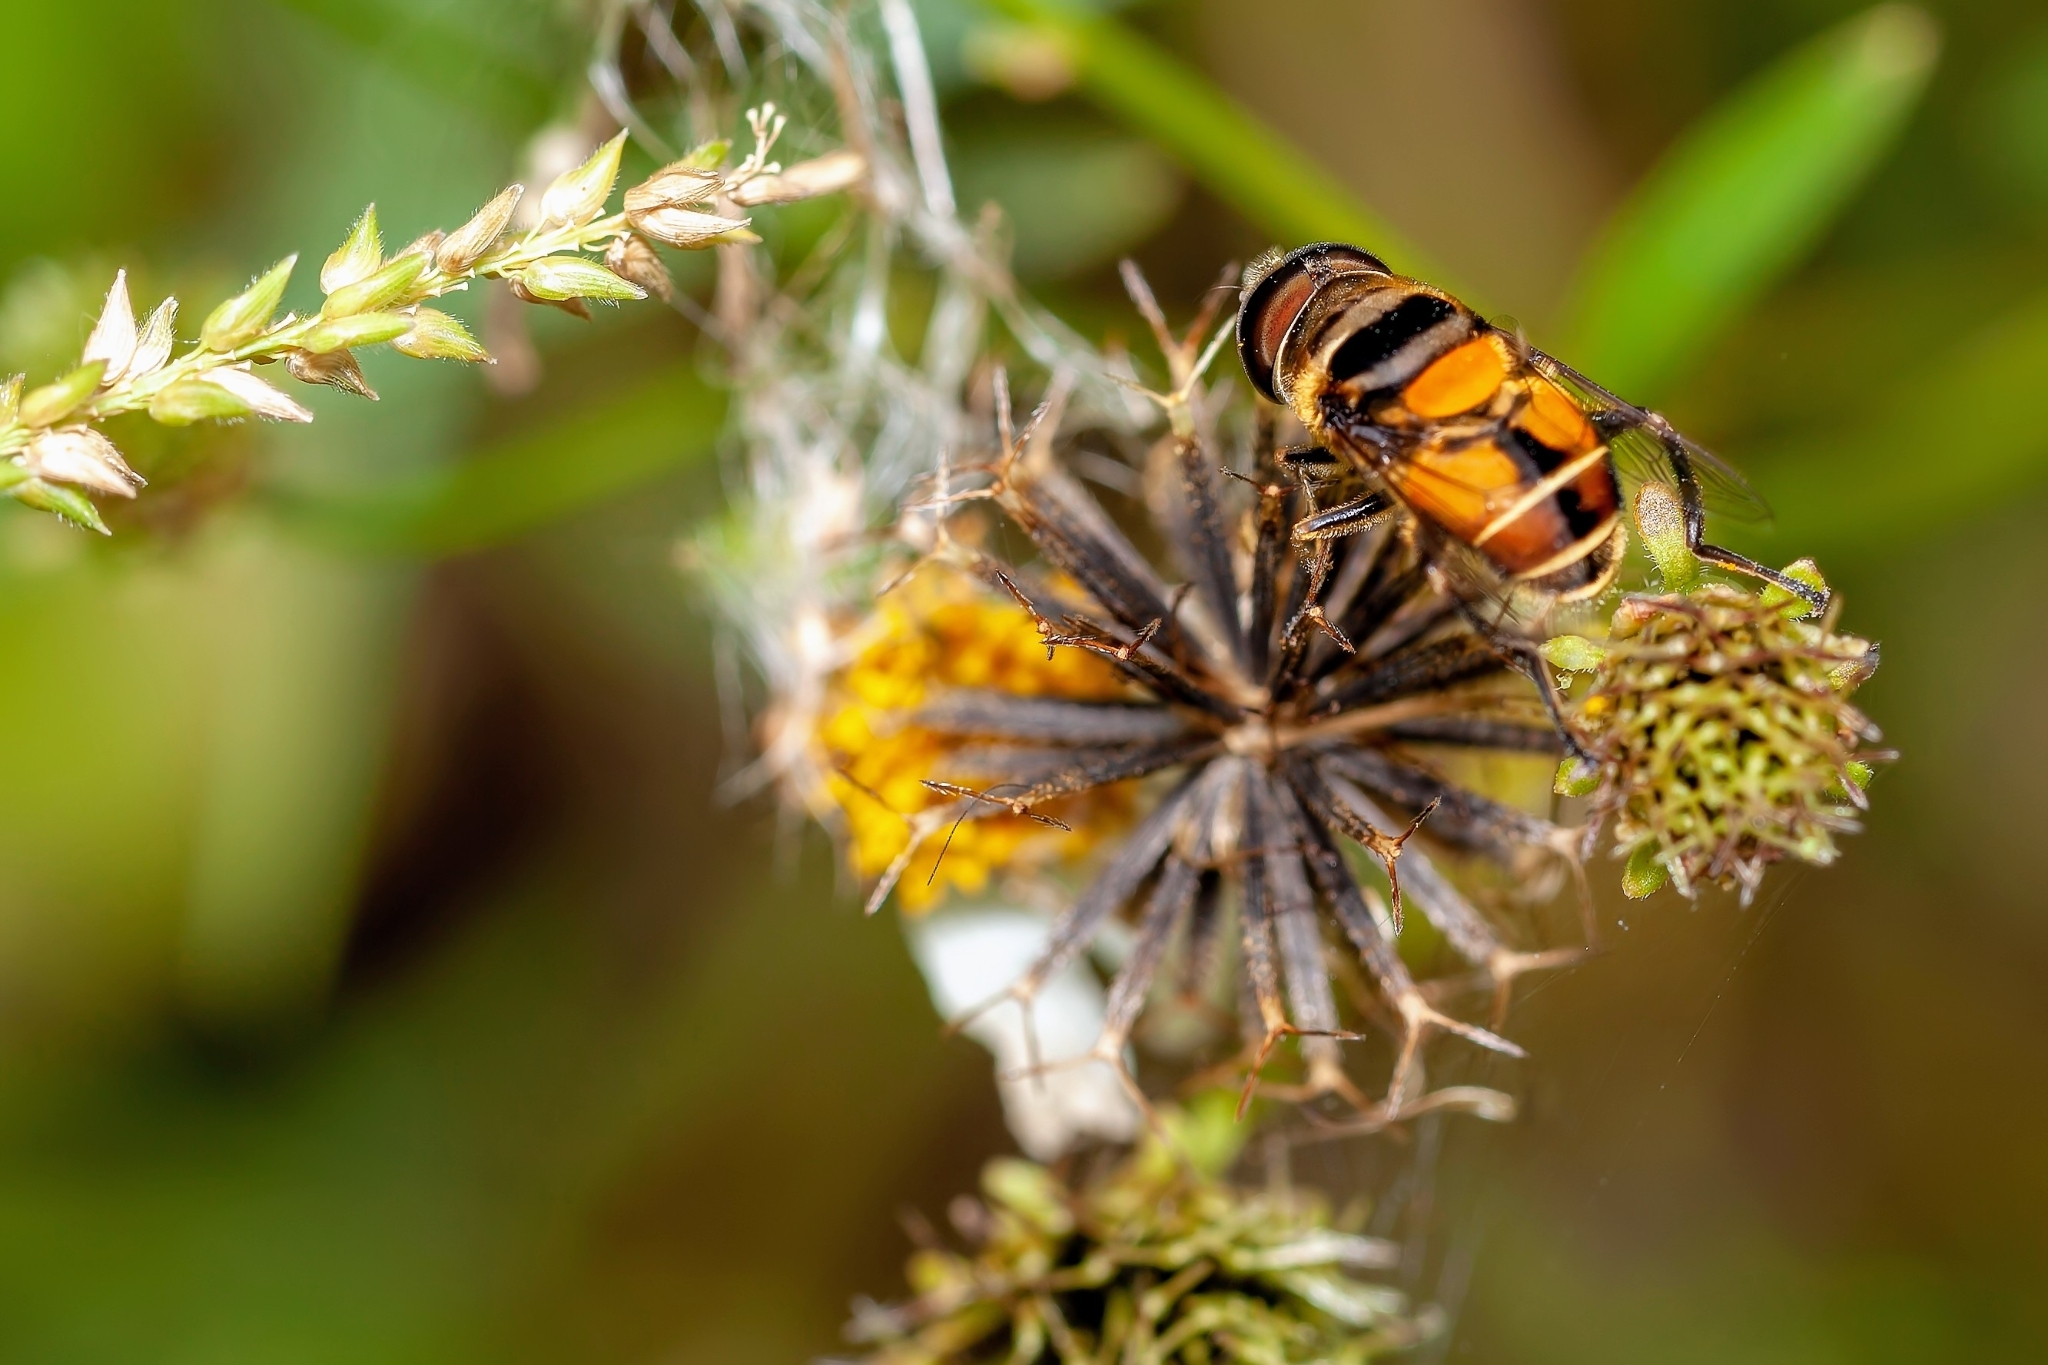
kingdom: Animalia
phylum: Arthropoda
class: Insecta
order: Diptera
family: Syrphidae
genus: Palpada
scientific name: Palpada agrorum
